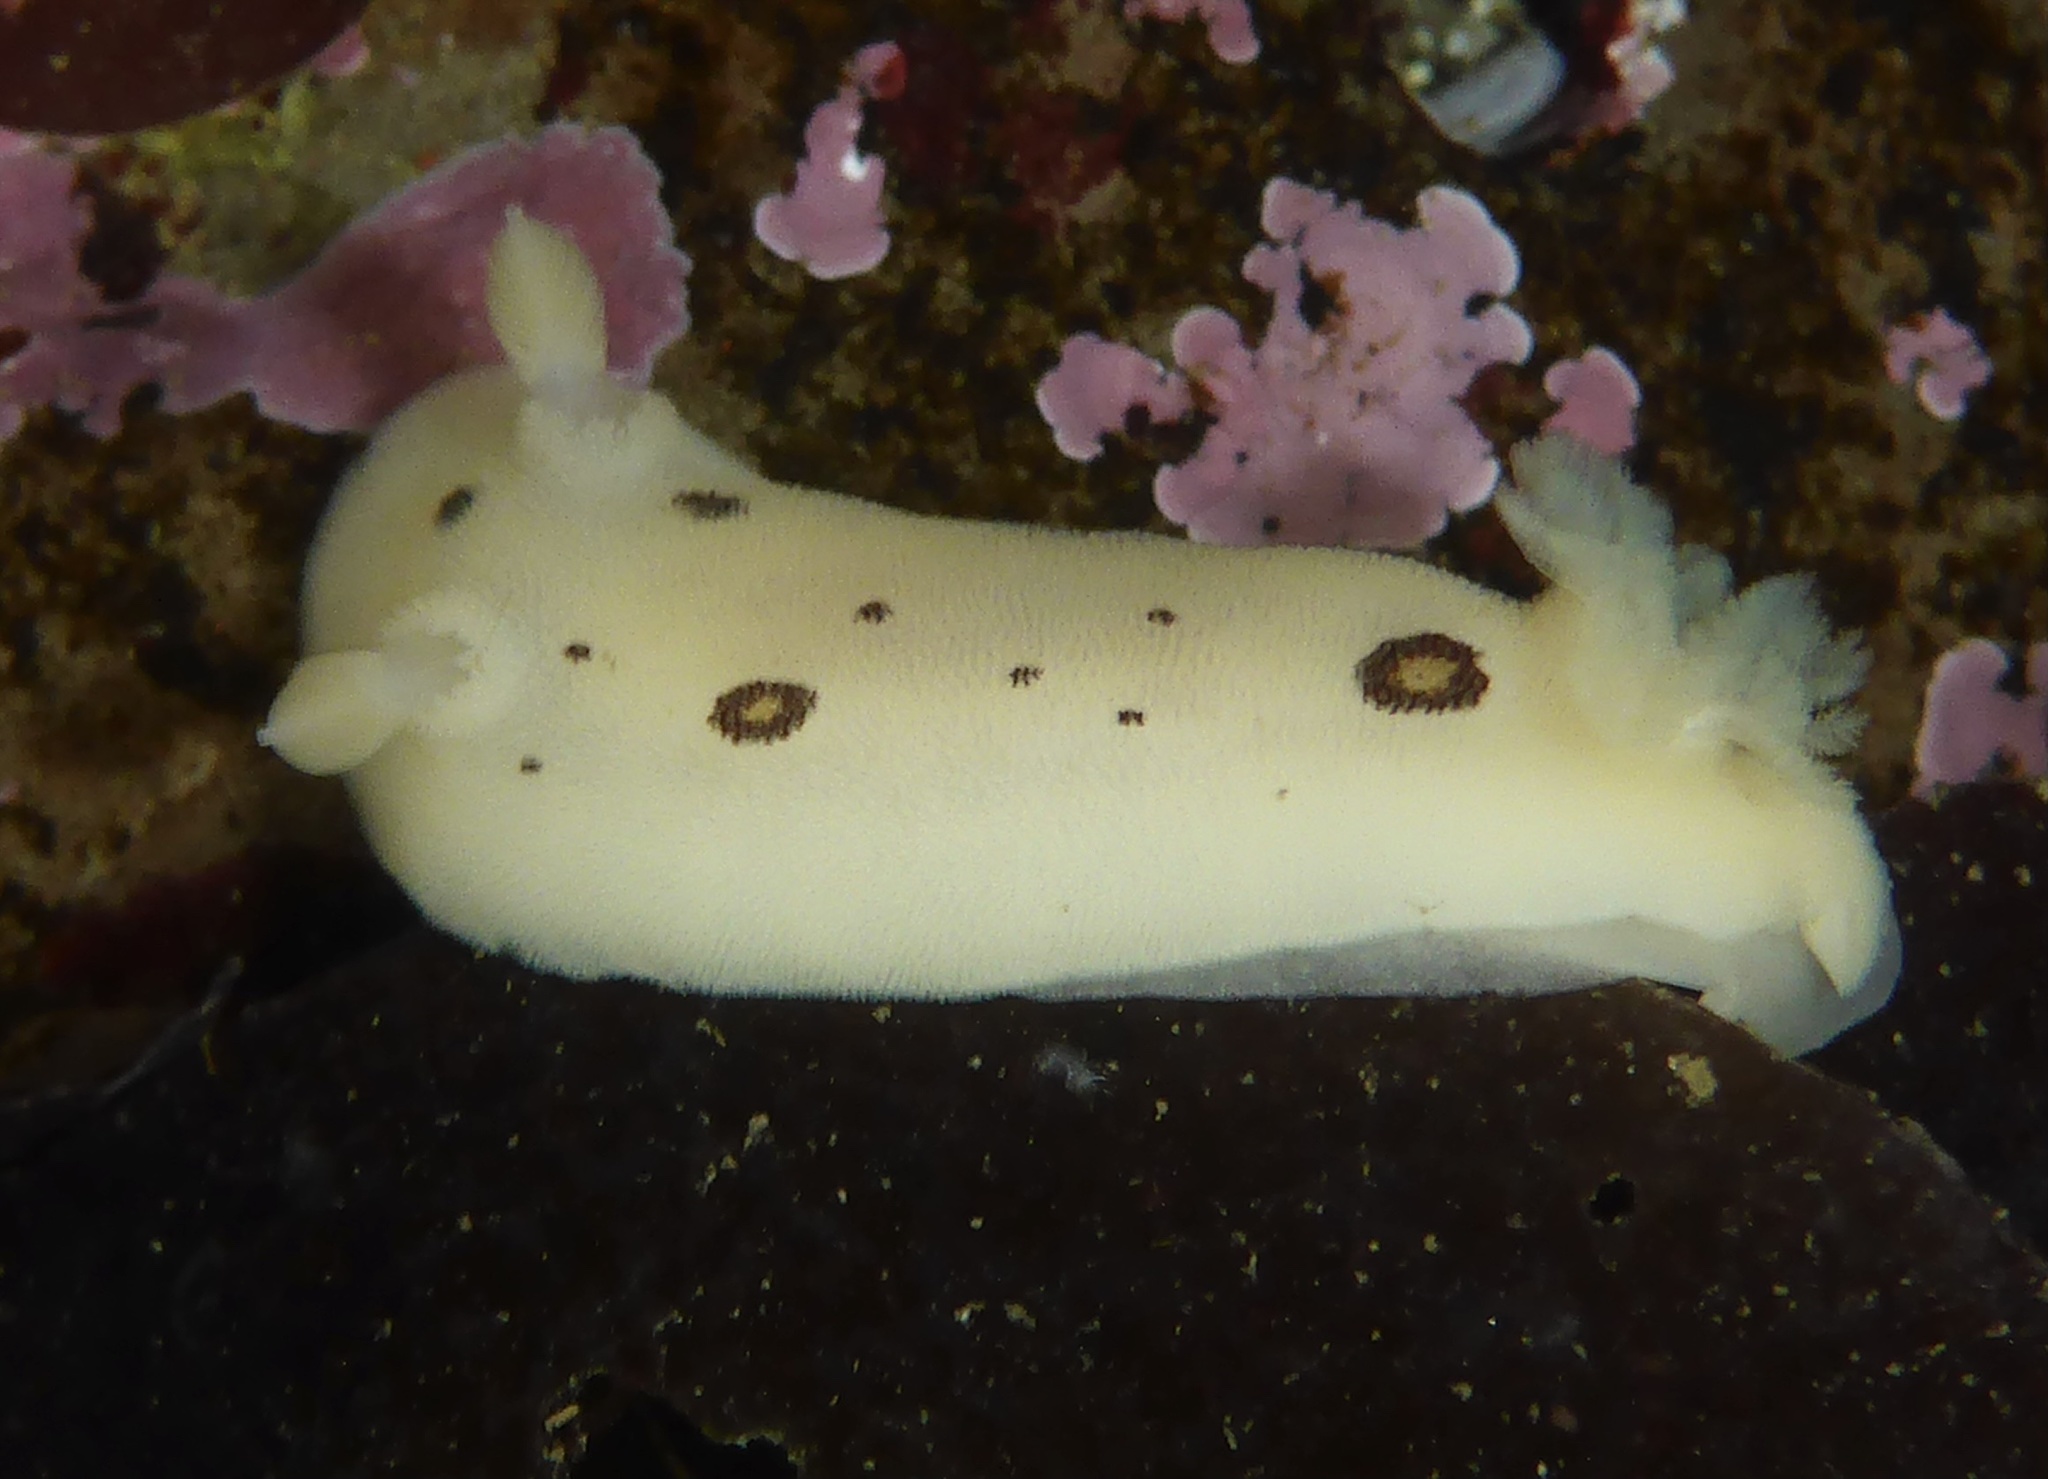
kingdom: Animalia
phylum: Mollusca
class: Gastropoda
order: Nudibranchia
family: Discodorididae
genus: Diaulula
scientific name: Diaulula sandiegensis
